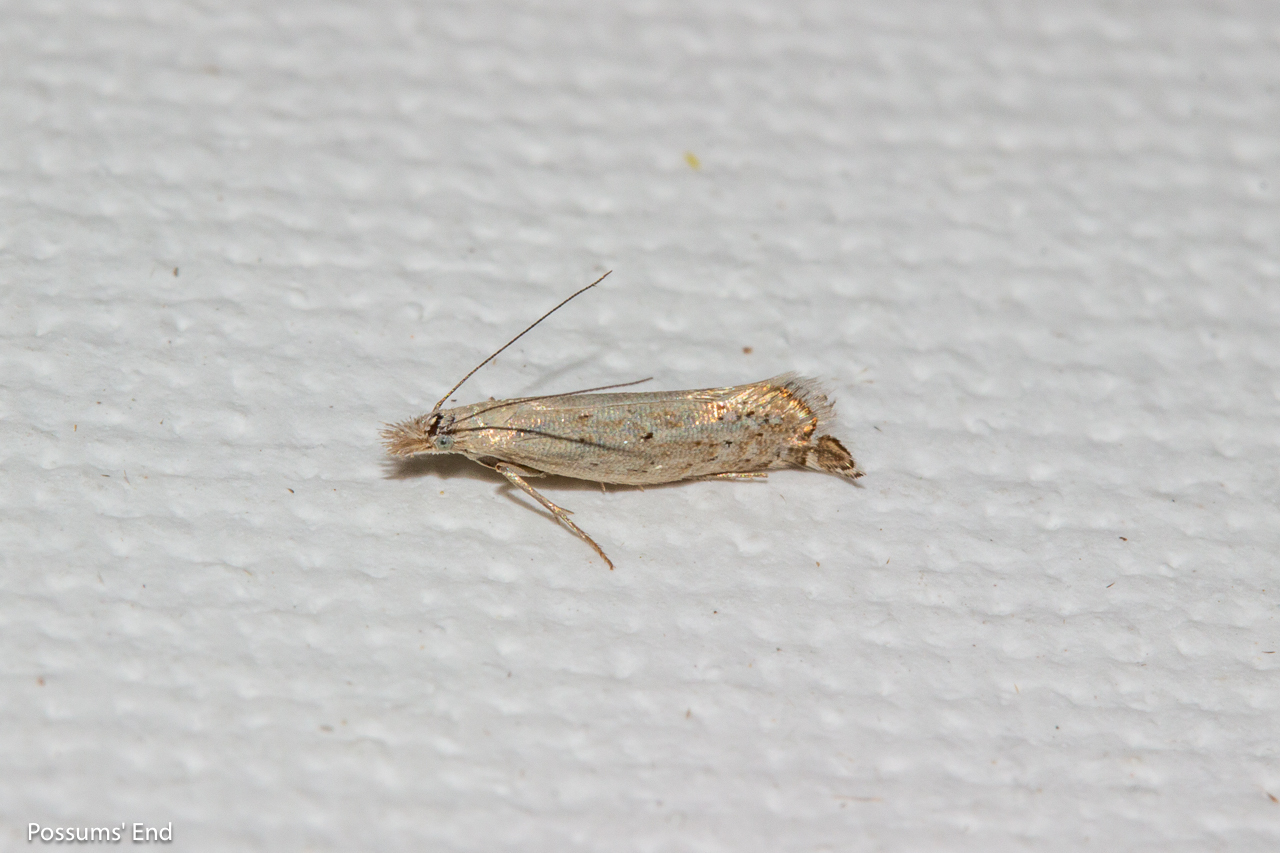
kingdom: Animalia
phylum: Arthropoda
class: Insecta
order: Lepidoptera
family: Glyphipterigidae
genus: Glyphipterix
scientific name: Glyphipterix achlyoessa
